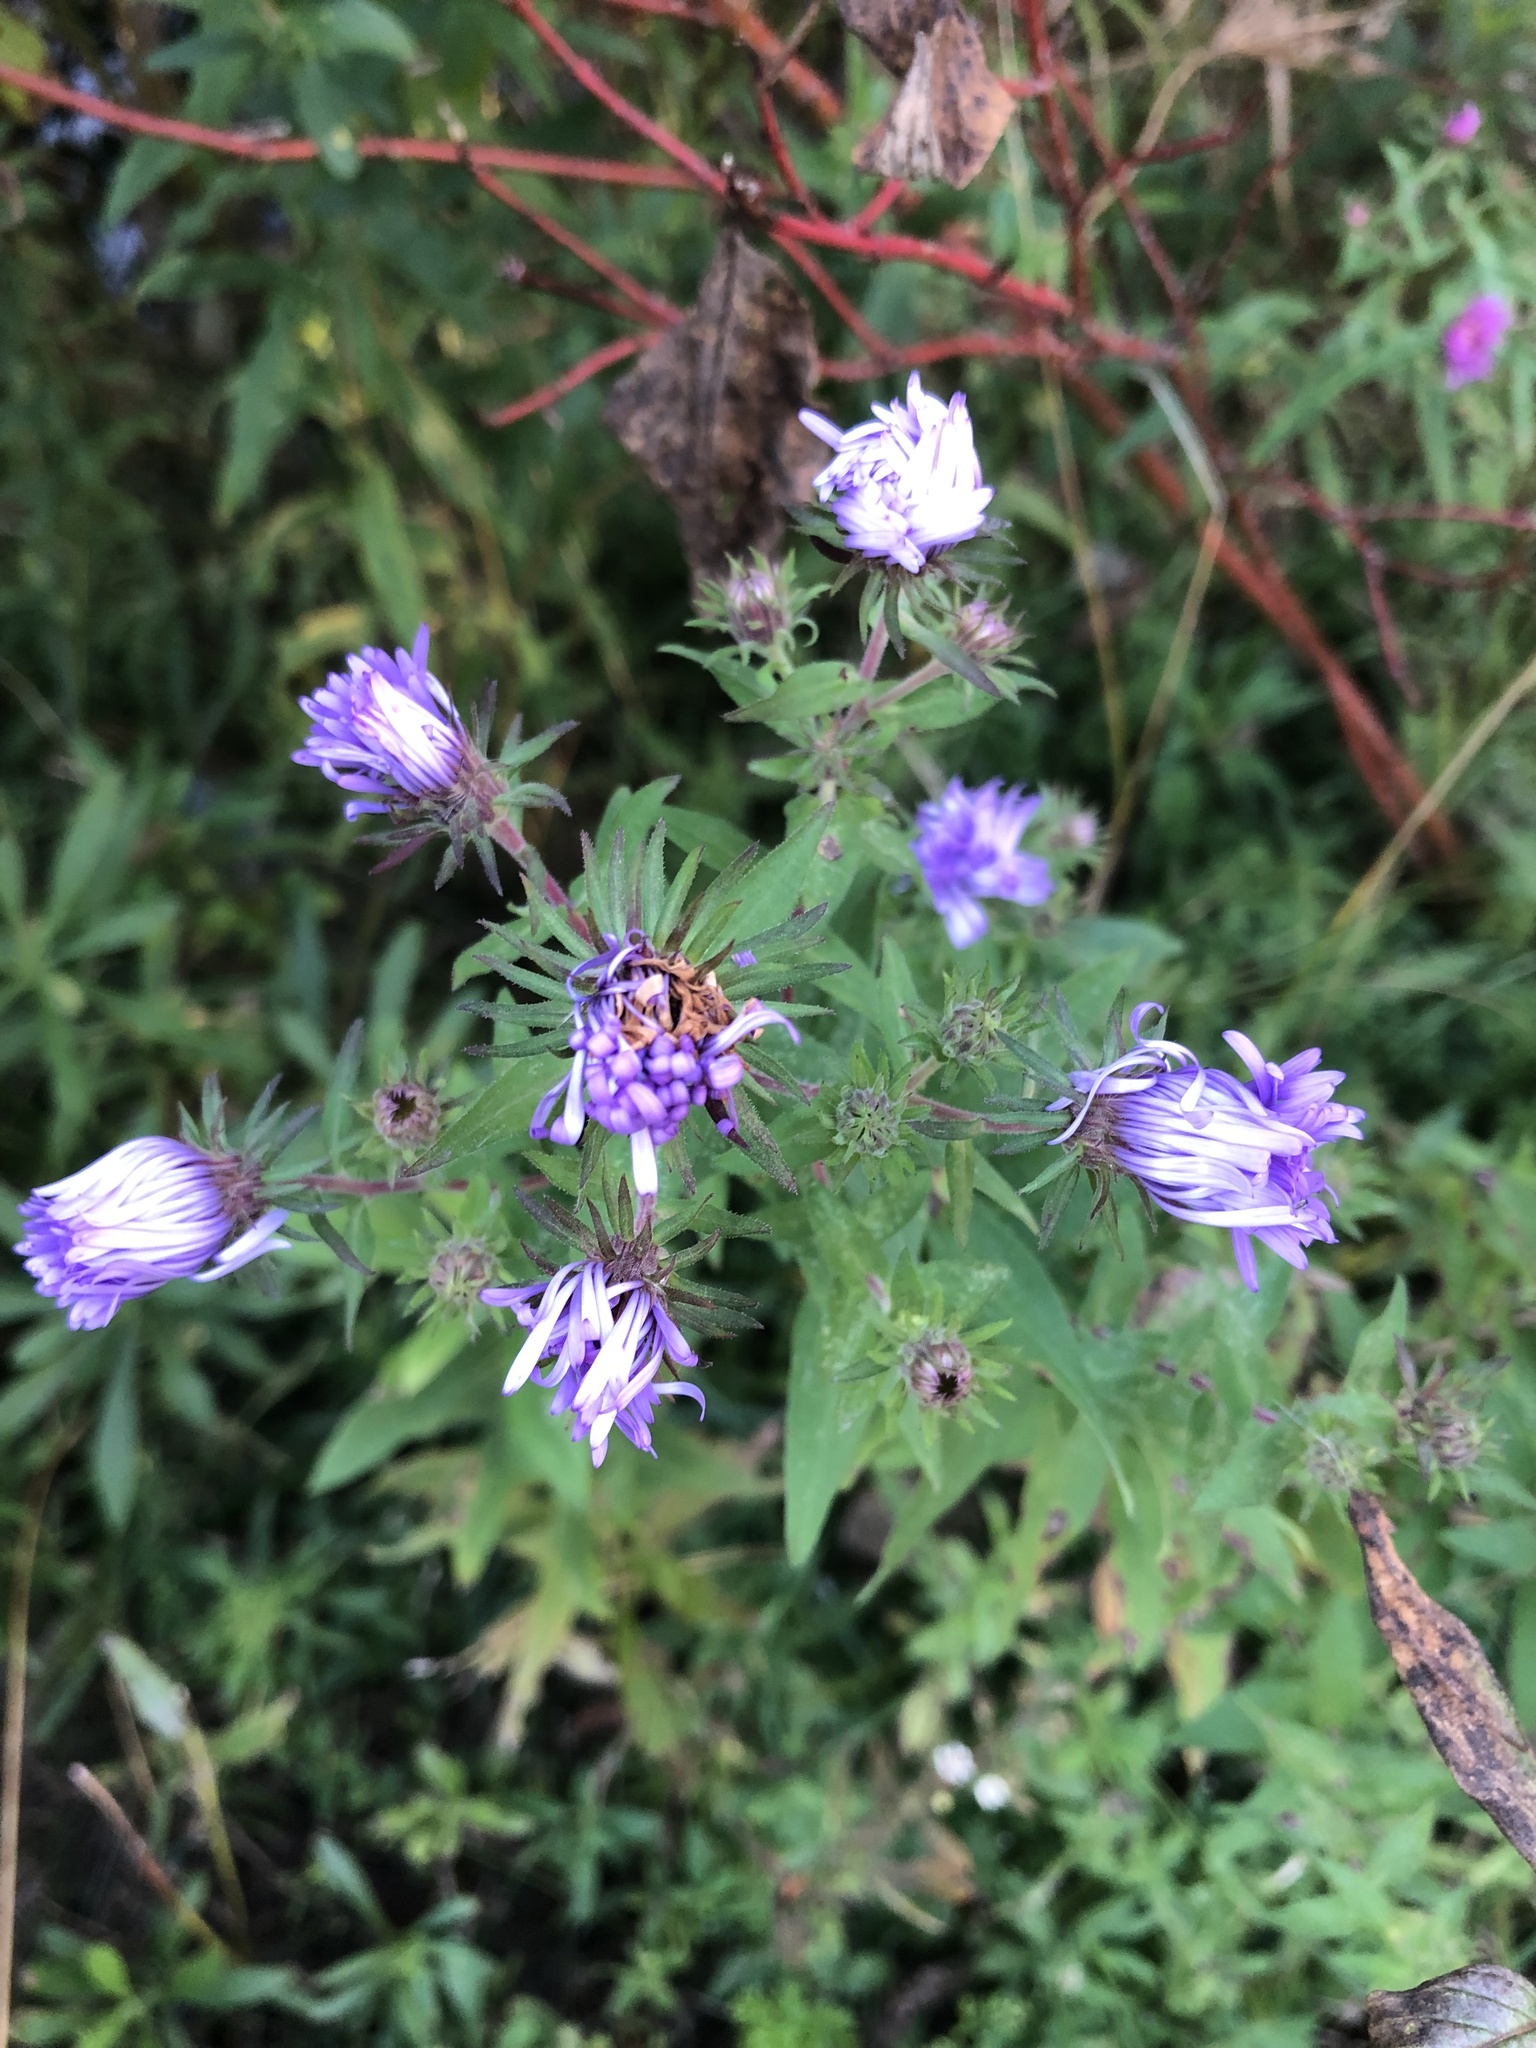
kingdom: Plantae
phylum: Tracheophyta
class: Magnoliopsida
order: Asterales
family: Asteraceae
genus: Symphyotrichum
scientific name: Symphyotrichum novae-angliae
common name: Michaelmas daisy
